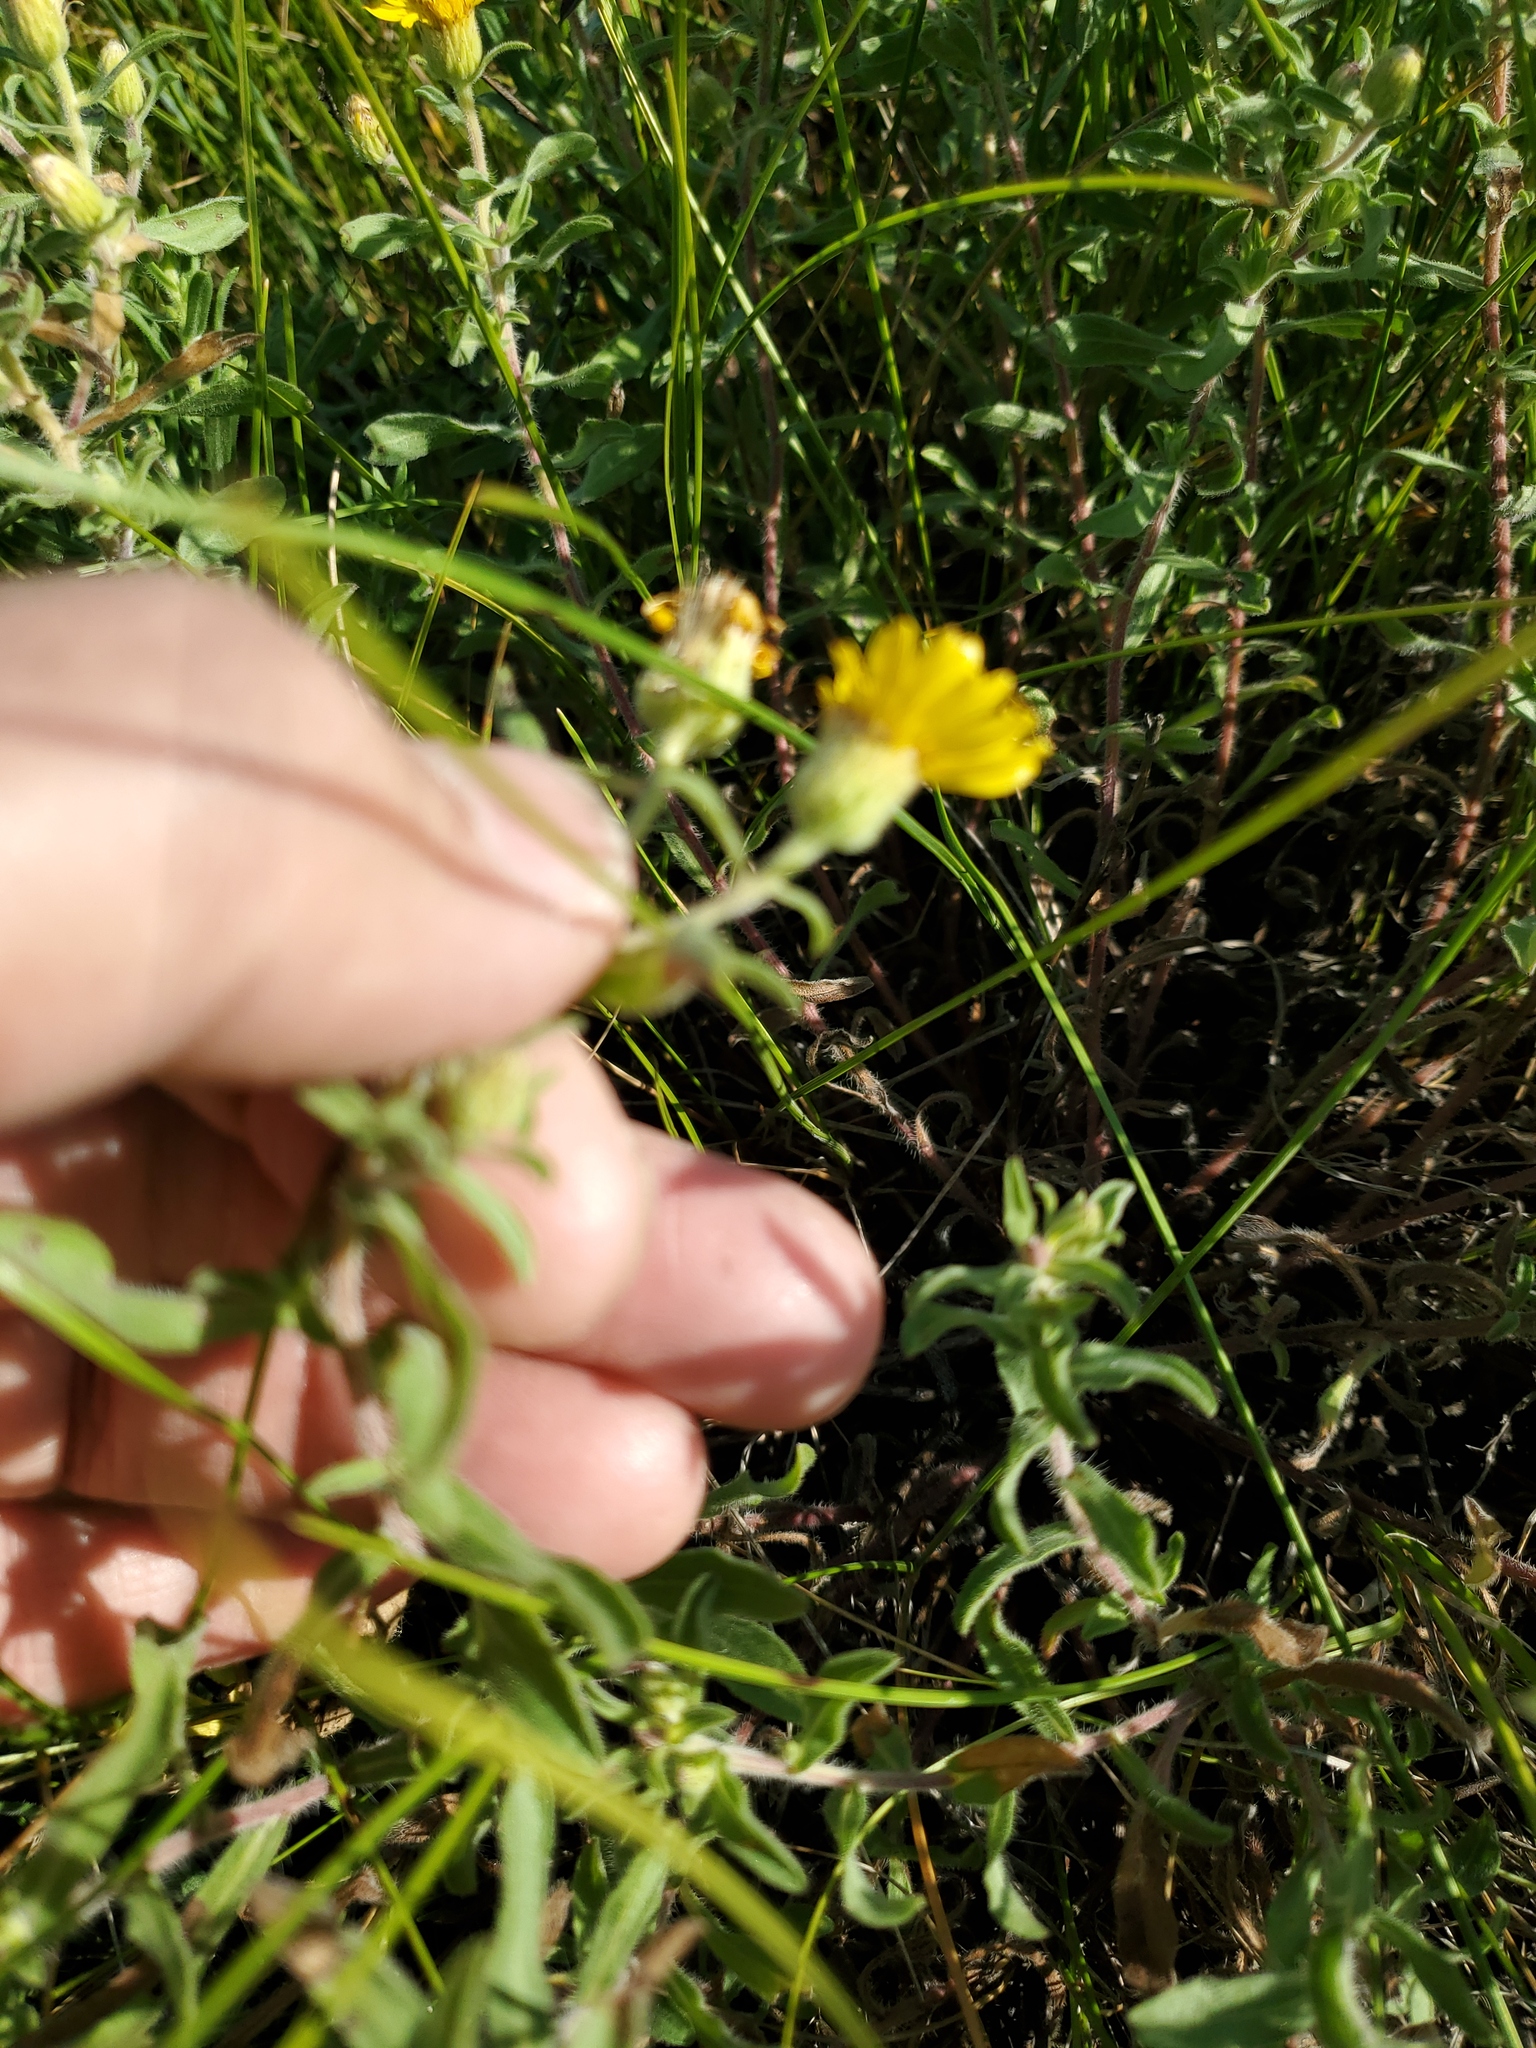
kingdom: Plantae
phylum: Tracheophyta
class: Magnoliopsida
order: Asterales
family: Asteraceae
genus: Heterotheca
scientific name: Heterotheca villosa
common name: Hairy false goldenaster
